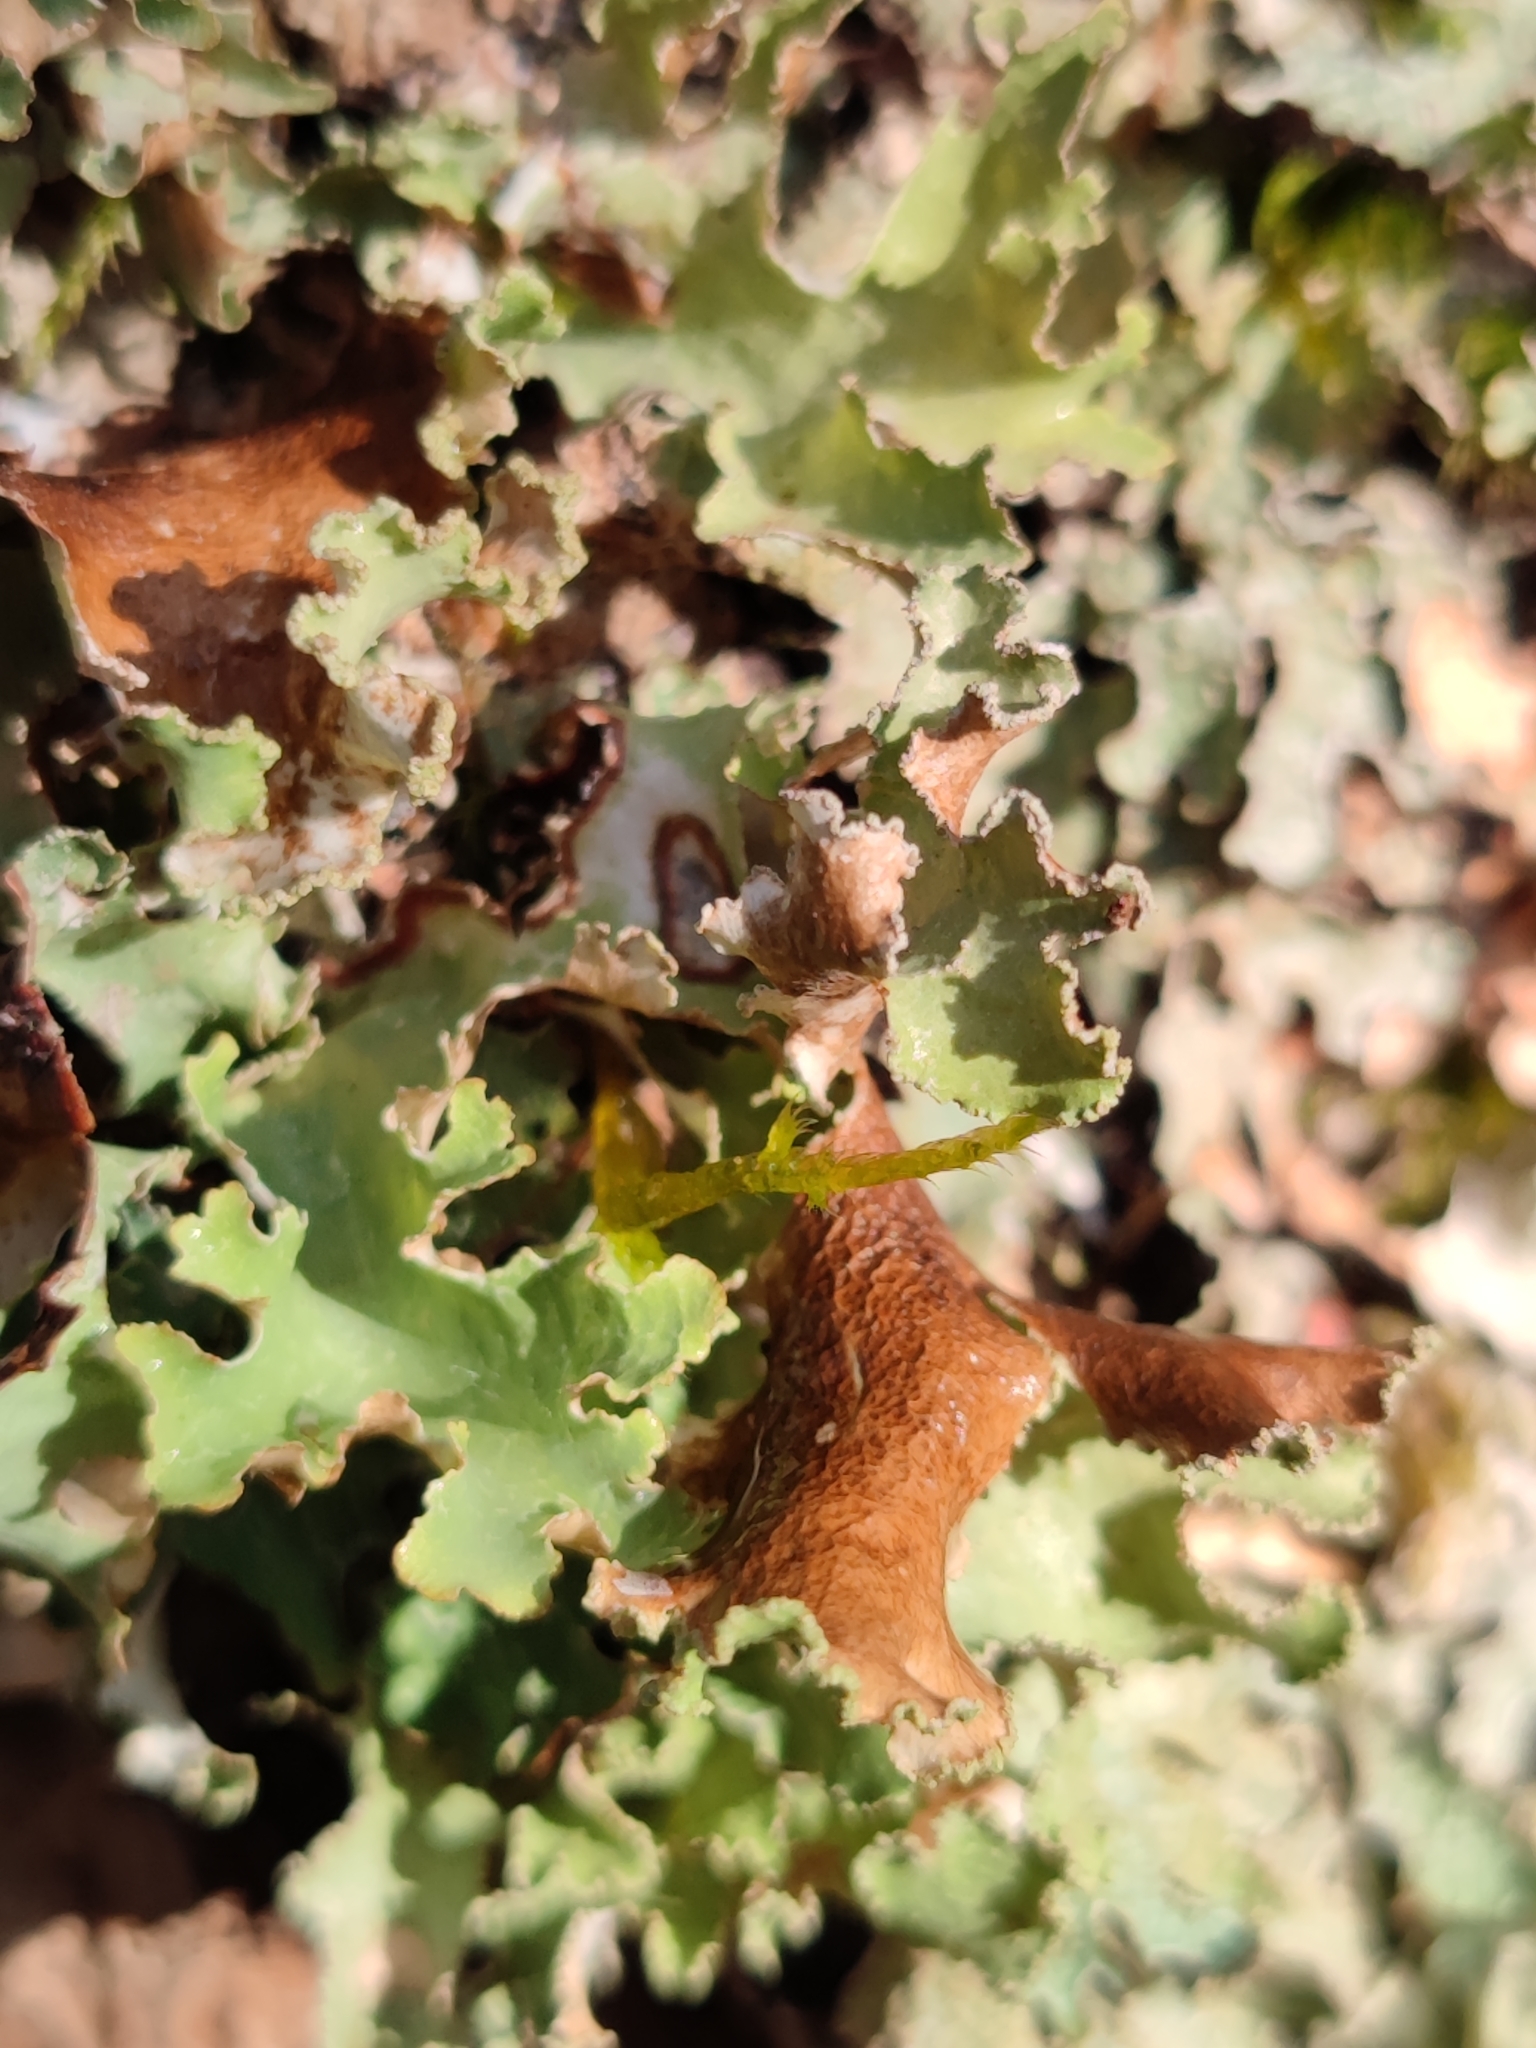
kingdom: Fungi
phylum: Ascomycota
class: Lecanoromycetes
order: Lecanorales
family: Parmeliaceae
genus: Platismatia
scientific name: Platismatia glauca
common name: Varied rag lichen
